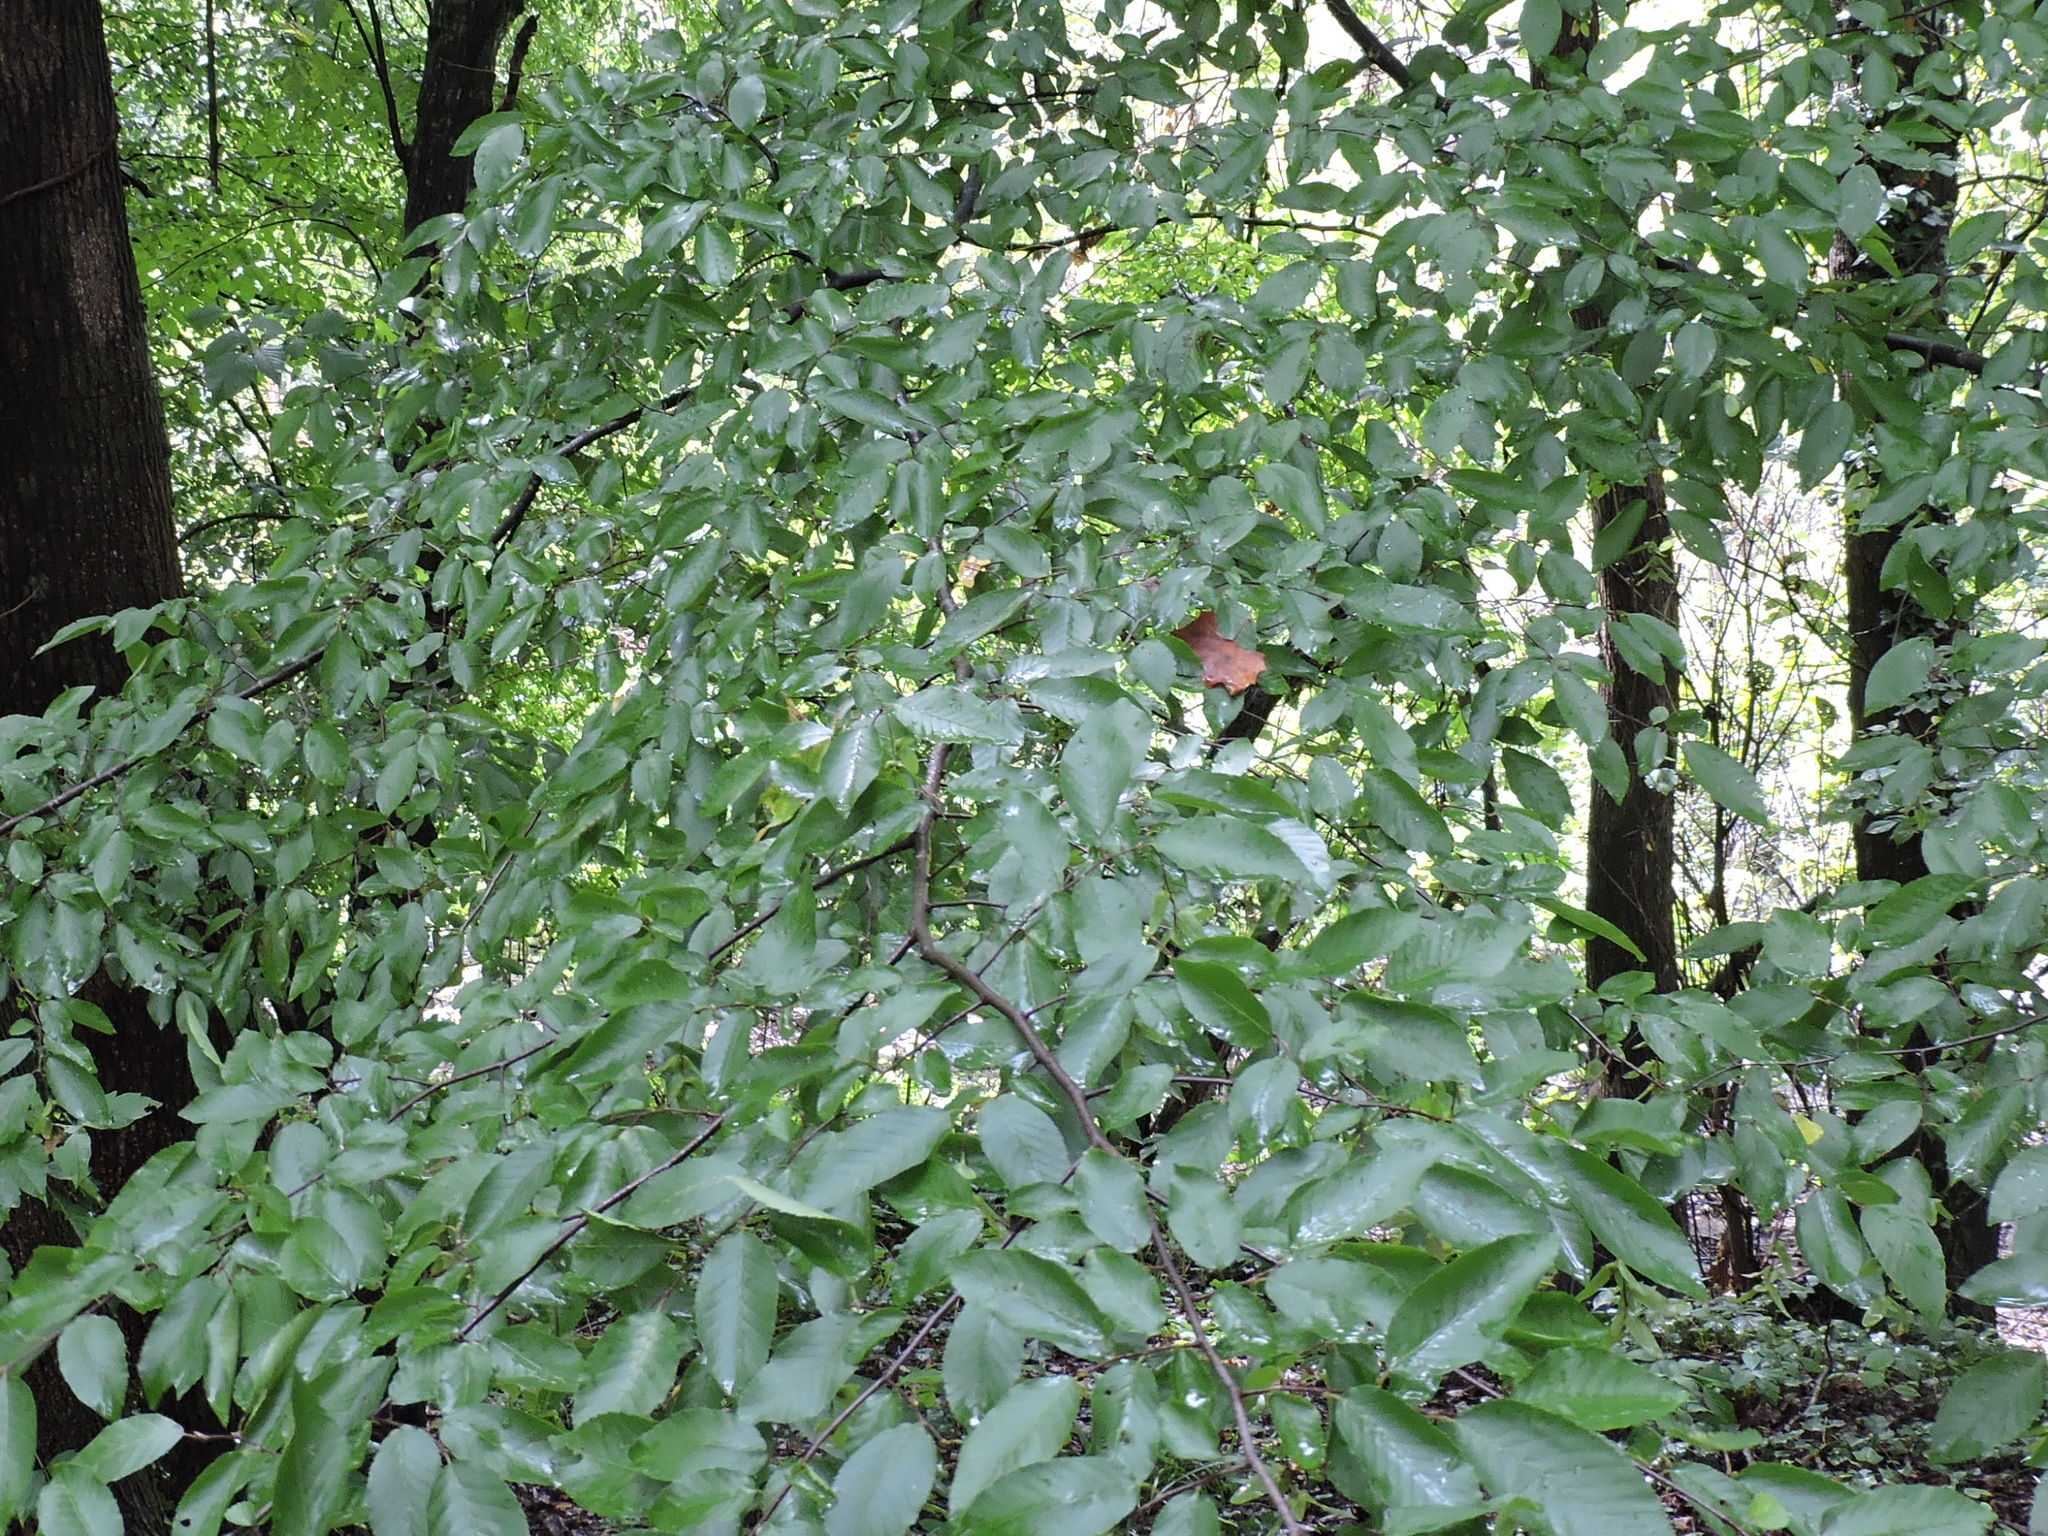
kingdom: Plantae
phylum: Tracheophyta
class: Magnoliopsida
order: Fagales
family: Betulaceae
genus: Carpinus
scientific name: Carpinus caroliniana
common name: American hornbeam
